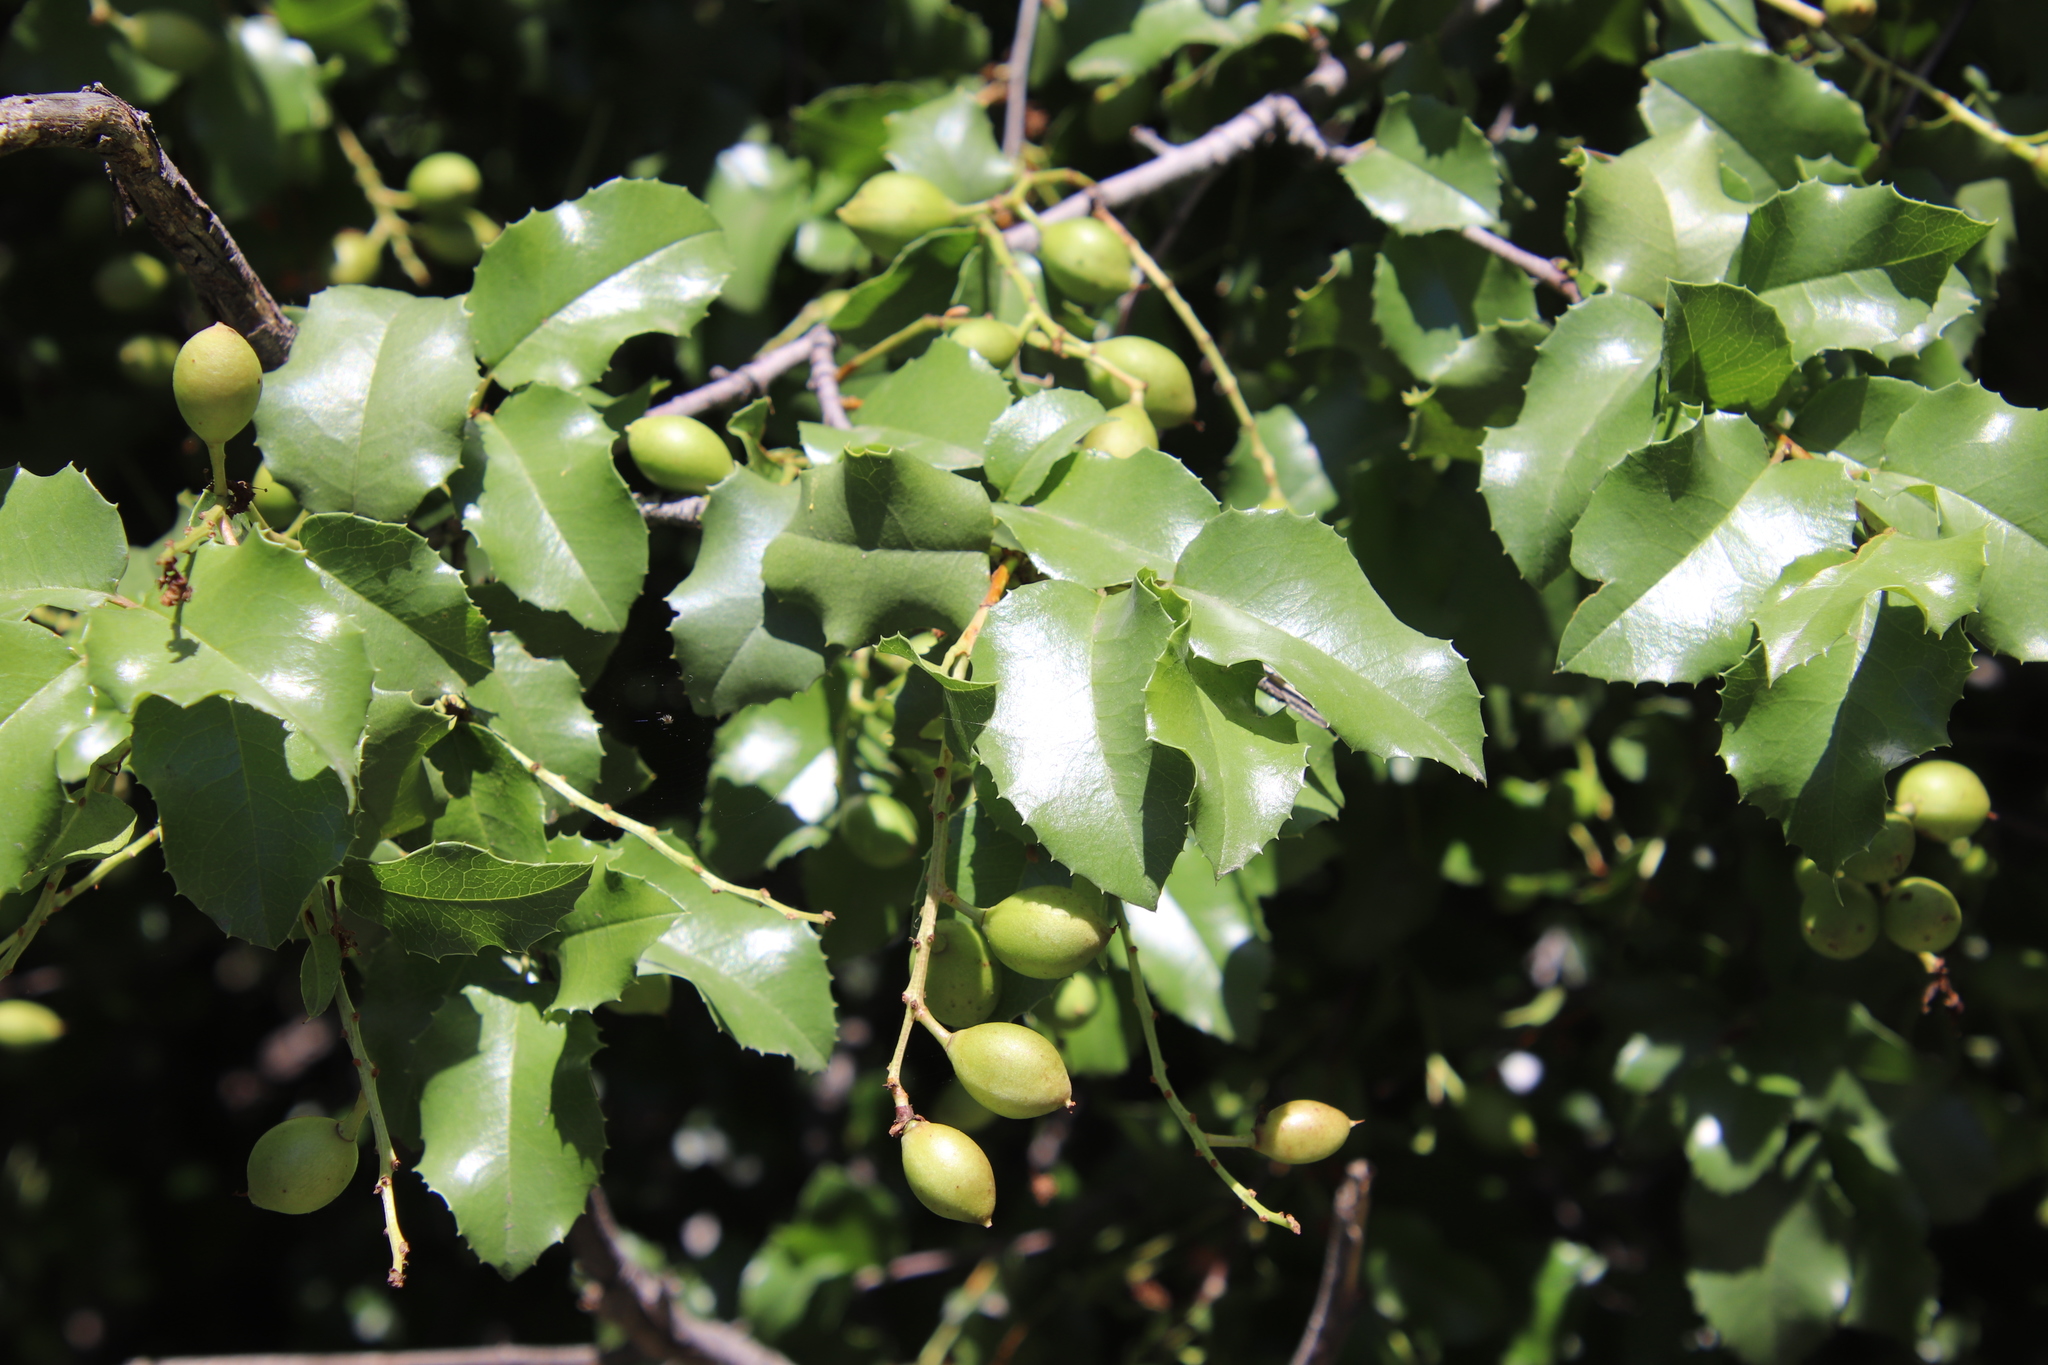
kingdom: Plantae
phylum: Tracheophyta
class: Magnoliopsida
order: Rosales
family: Rosaceae
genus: Prunus
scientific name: Prunus ilicifolia
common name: Hollyleaf cherry
